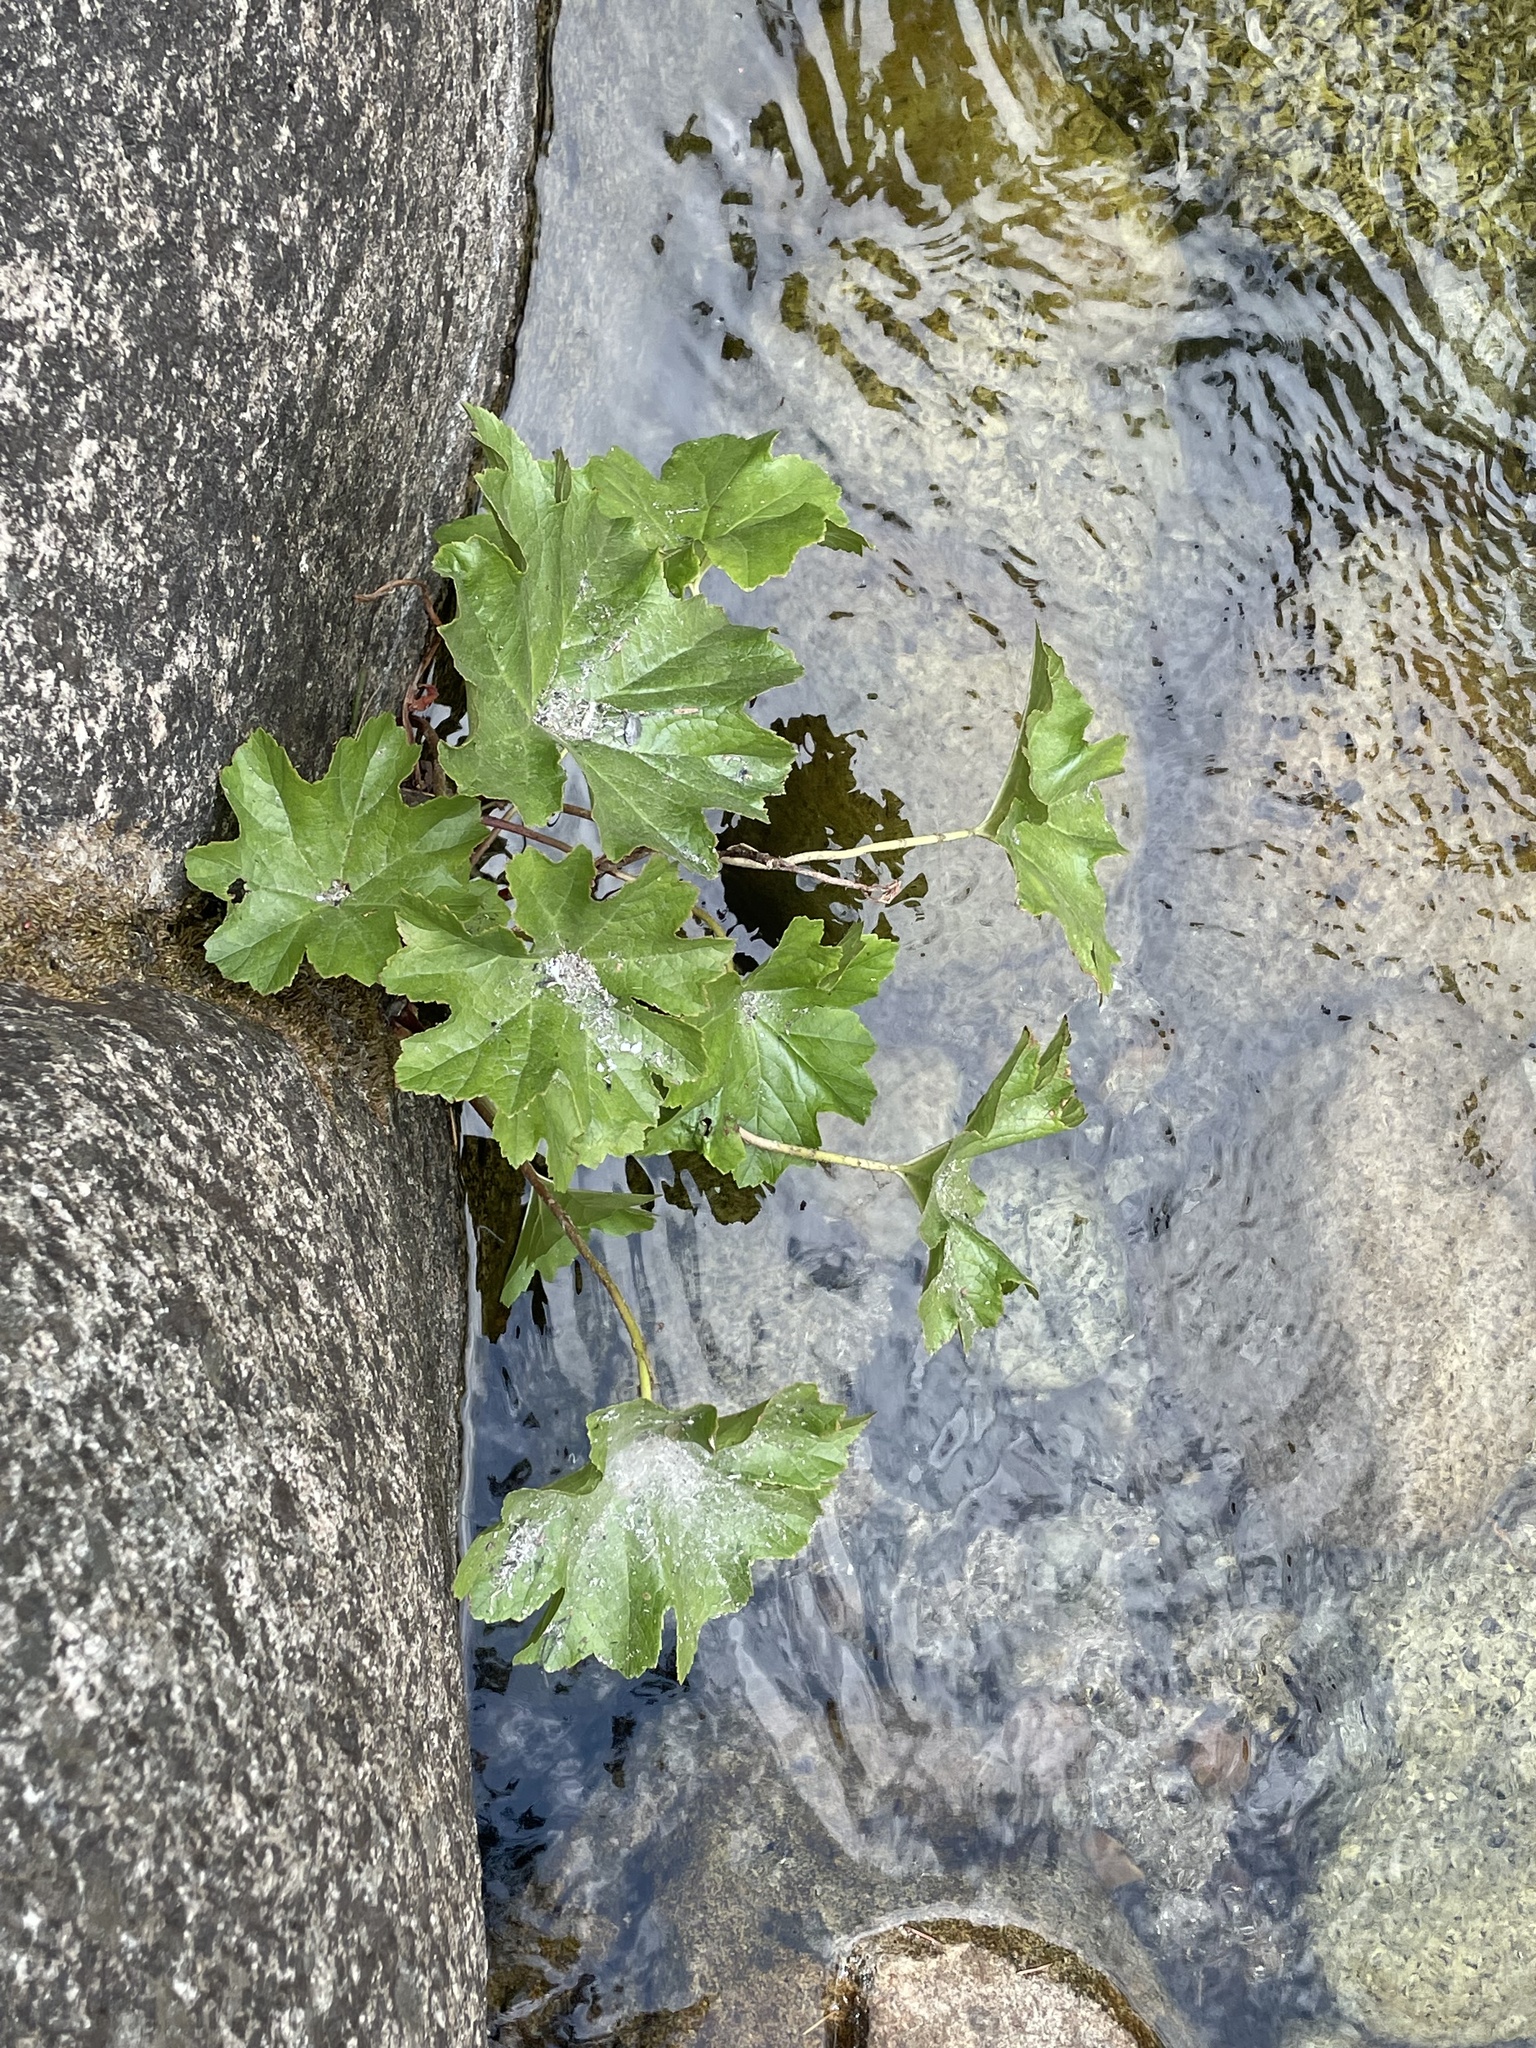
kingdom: Plantae
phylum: Tracheophyta
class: Magnoliopsida
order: Saxifragales
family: Saxifragaceae
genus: Darmera
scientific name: Darmera peltata
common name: Indian-rhubarb
